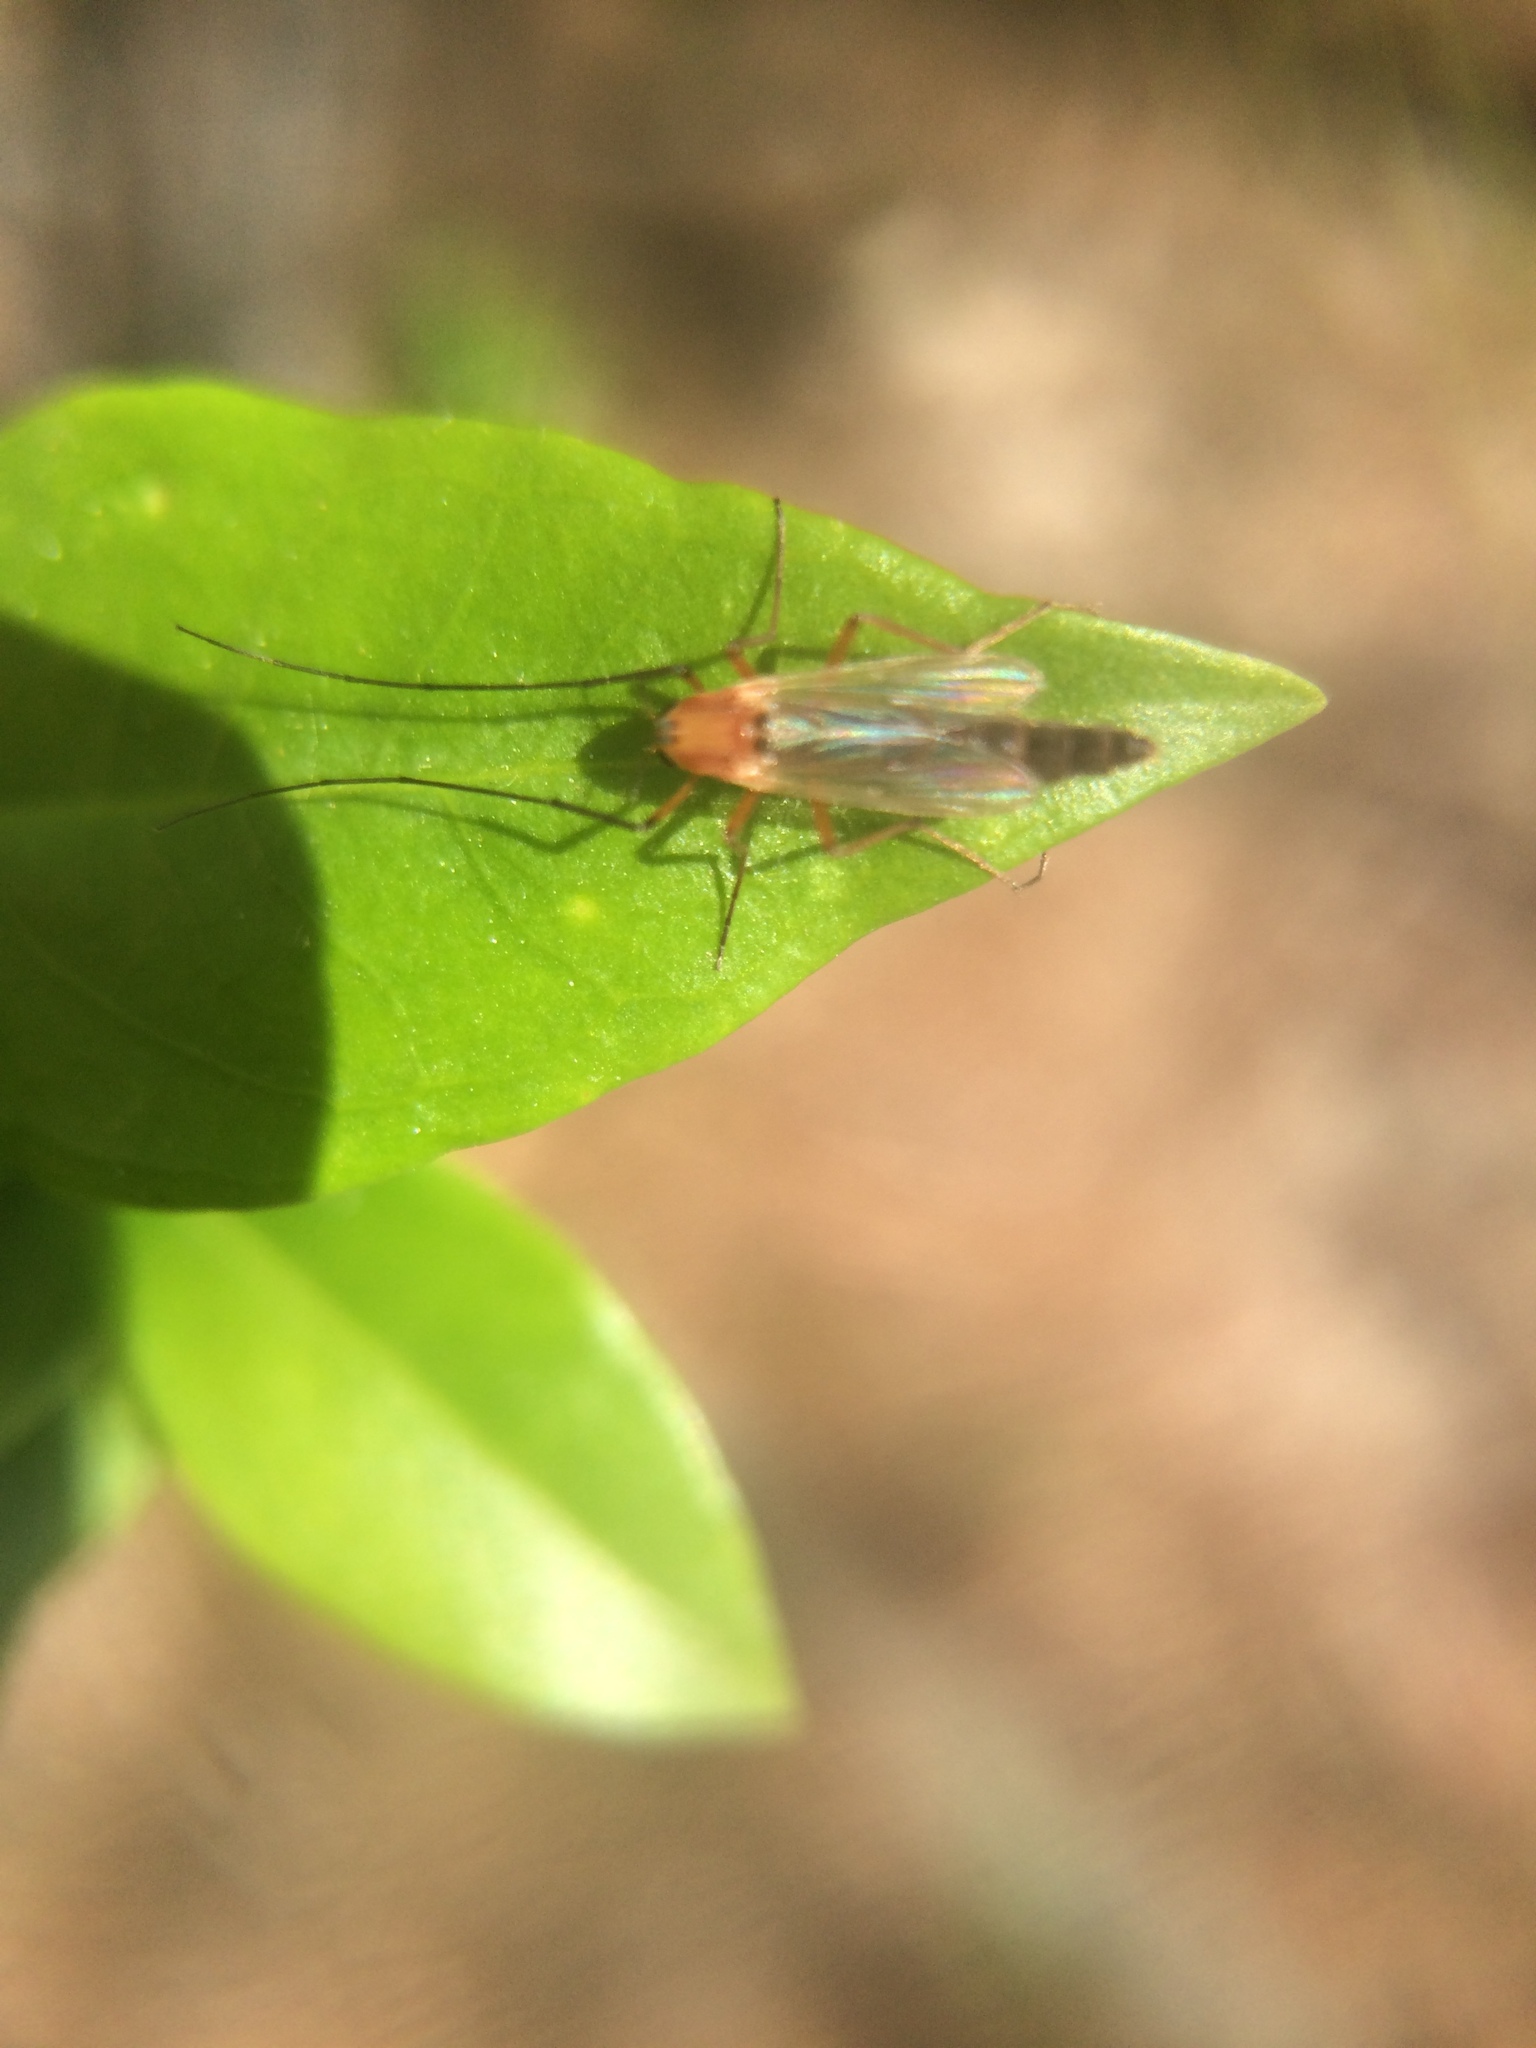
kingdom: Animalia
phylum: Arthropoda
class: Insecta
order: Diptera
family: Chironomidae
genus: Chironomus
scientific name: Chironomus ochreatus
